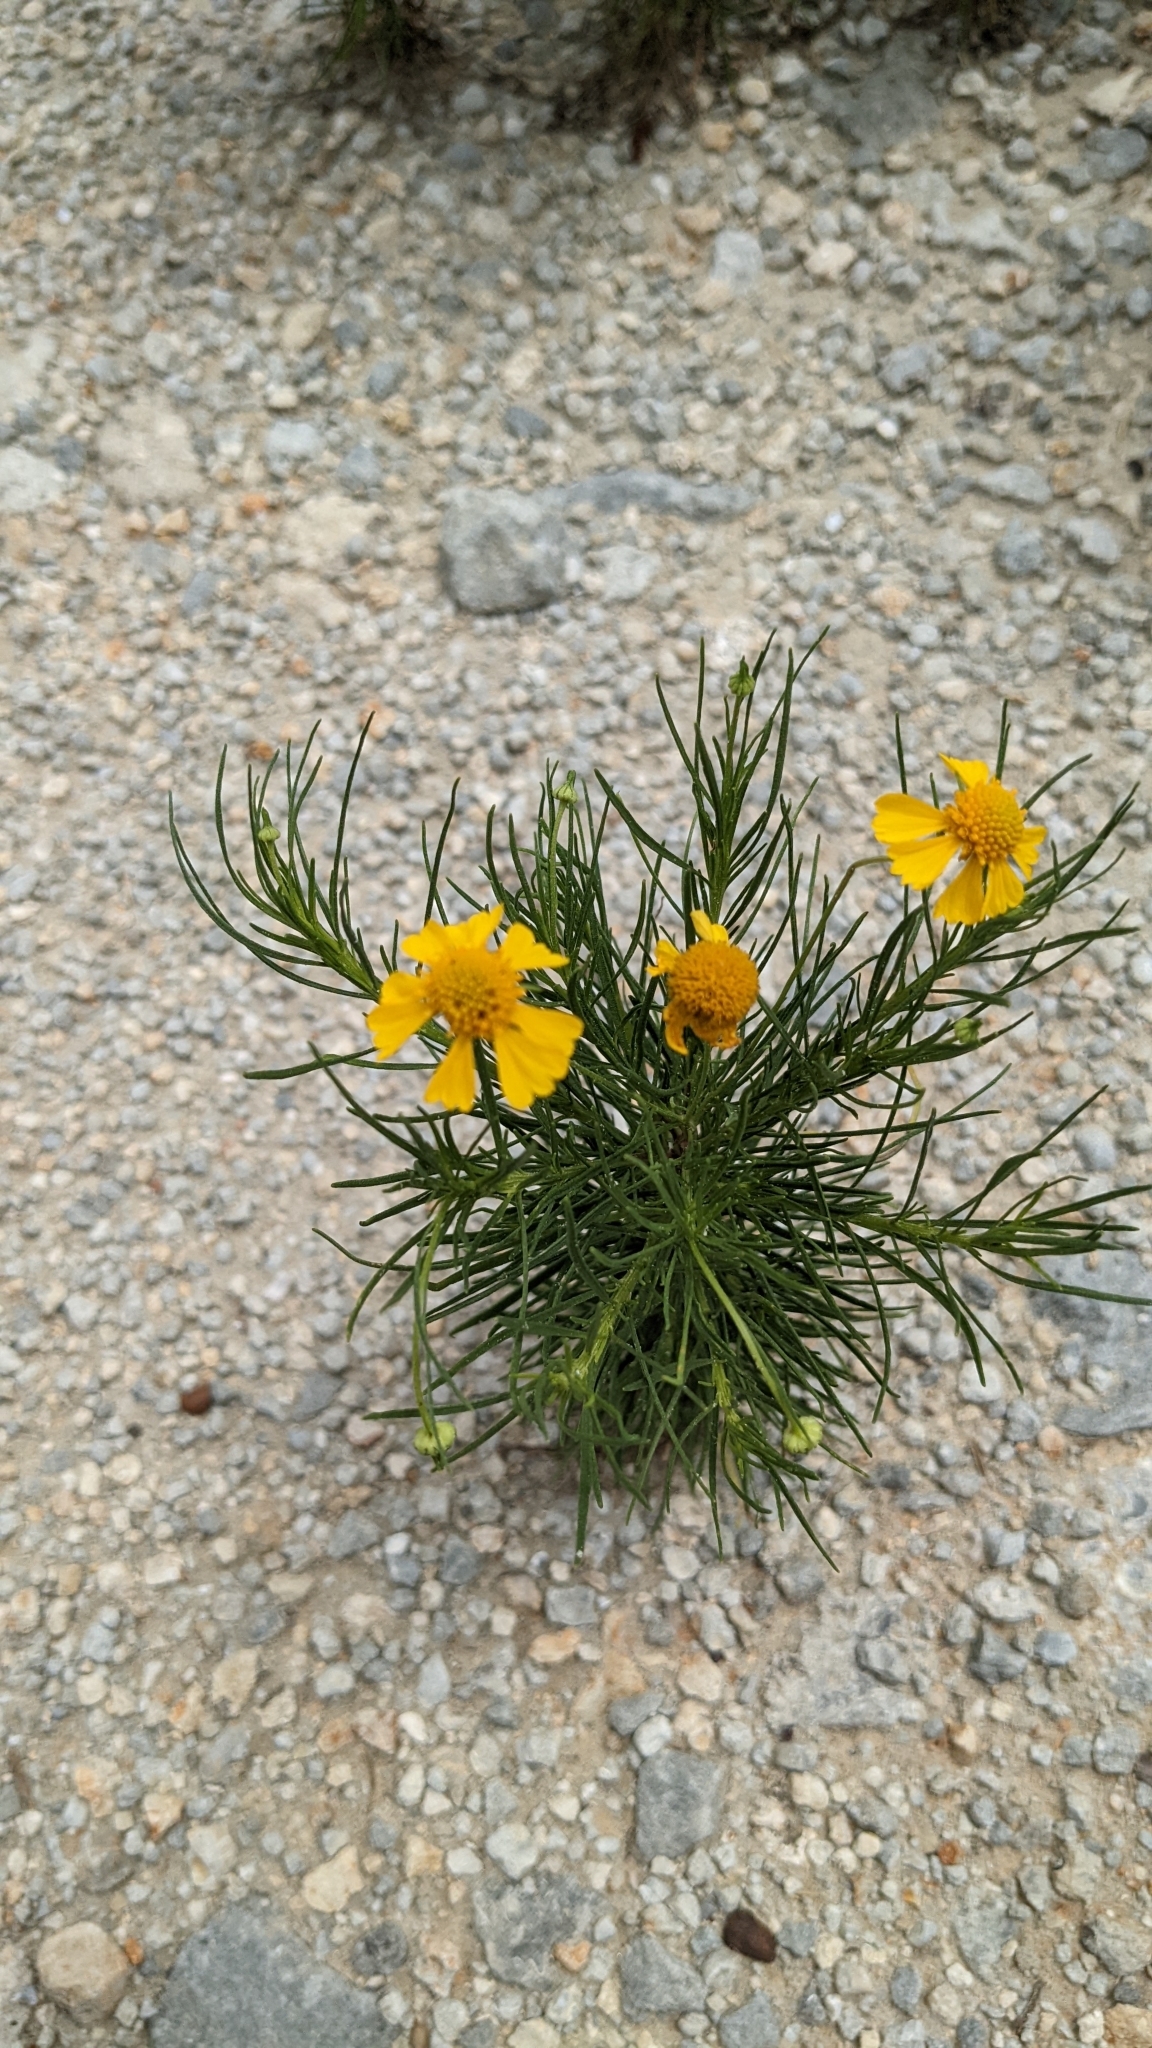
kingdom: Plantae
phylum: Tracheophyta
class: Magnoliopsida
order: Asterales
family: Asteraceae
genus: Helenium
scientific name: Helenium amarum
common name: Bitter sneezeweed
